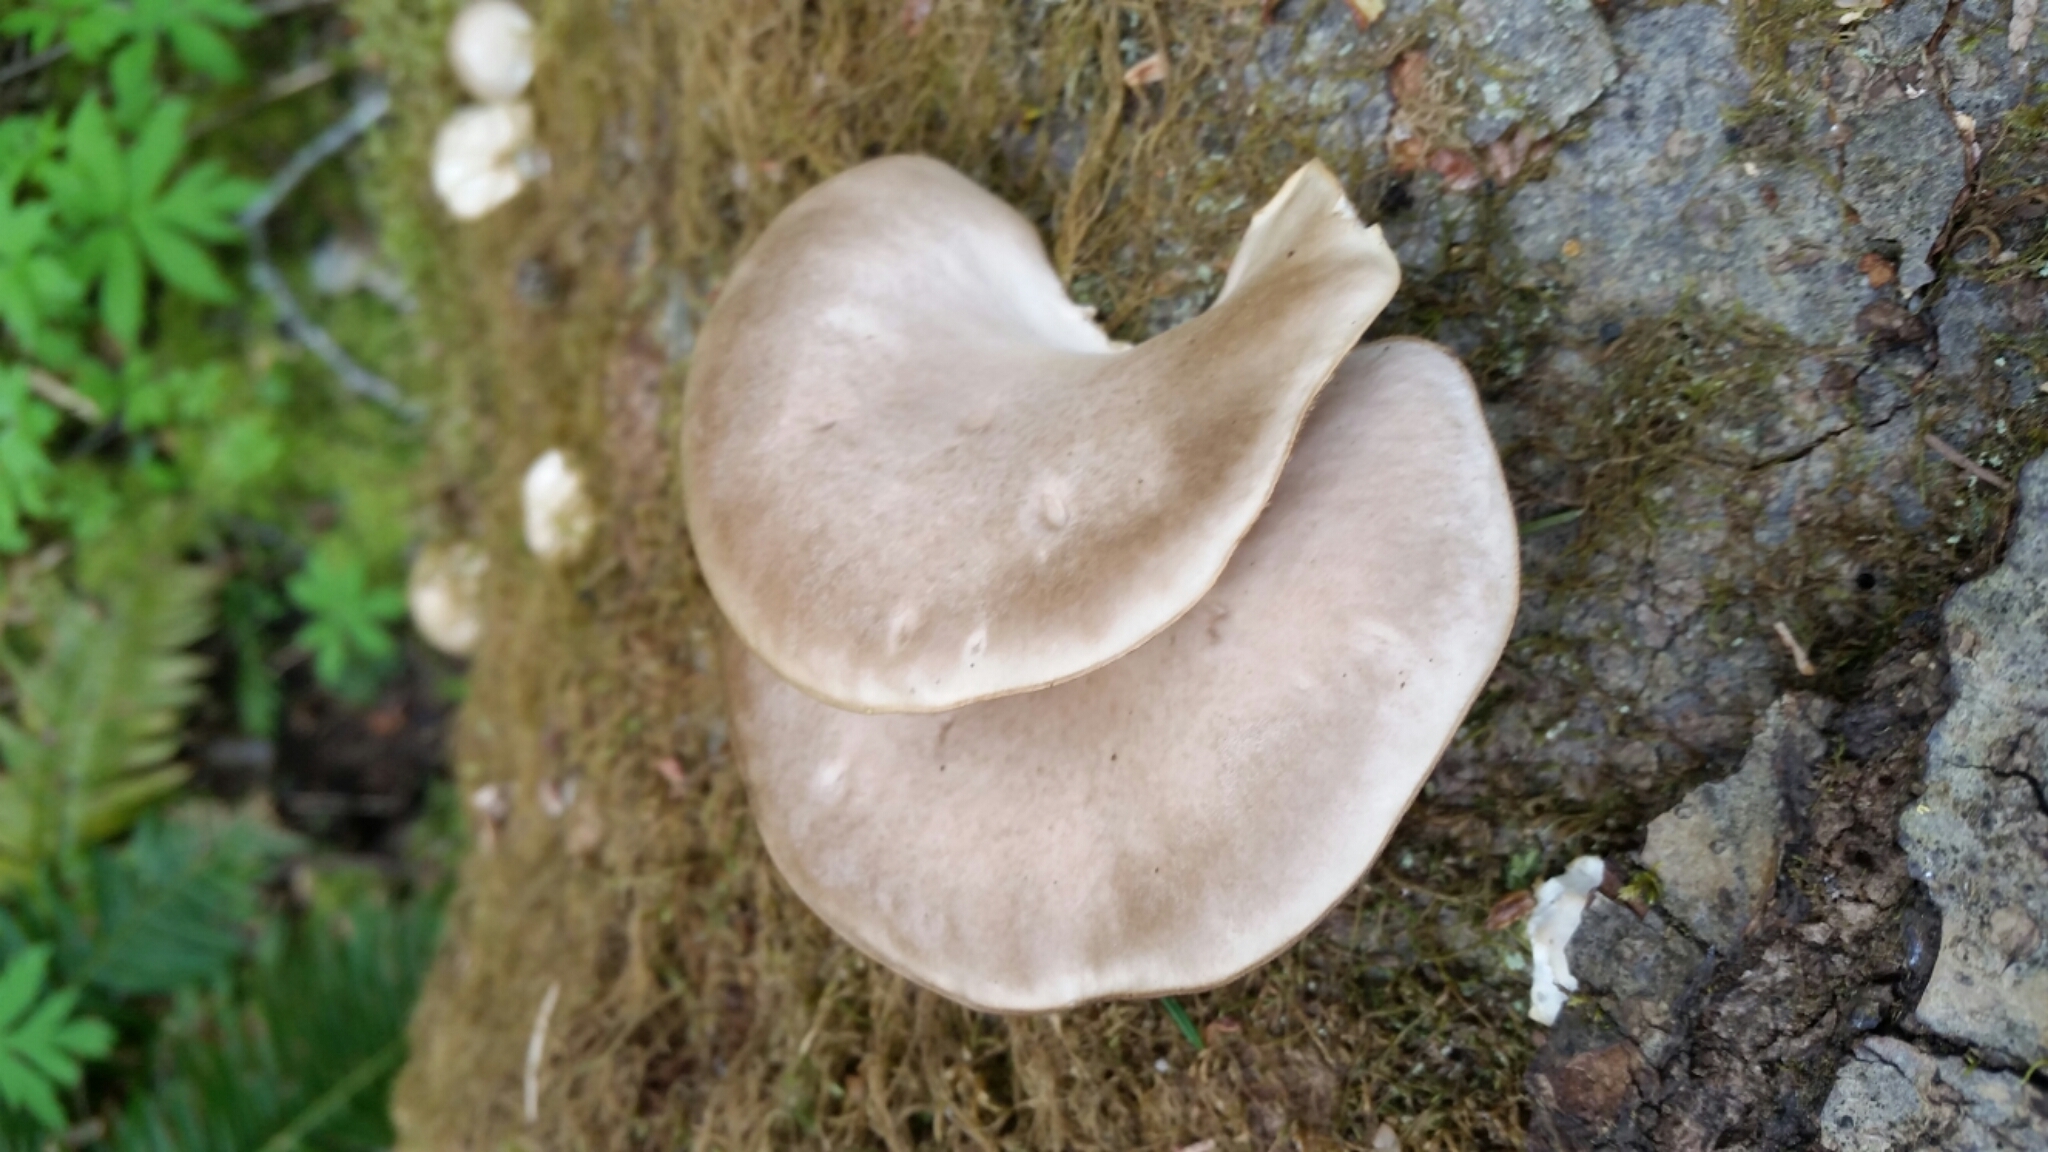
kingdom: Fungi
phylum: Basidiomycota
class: Agaricomycetes
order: Agaricales
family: Pleurotaceae
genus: Pleurotus
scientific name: Pleurotus ostreatus
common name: Oyster mushroom
